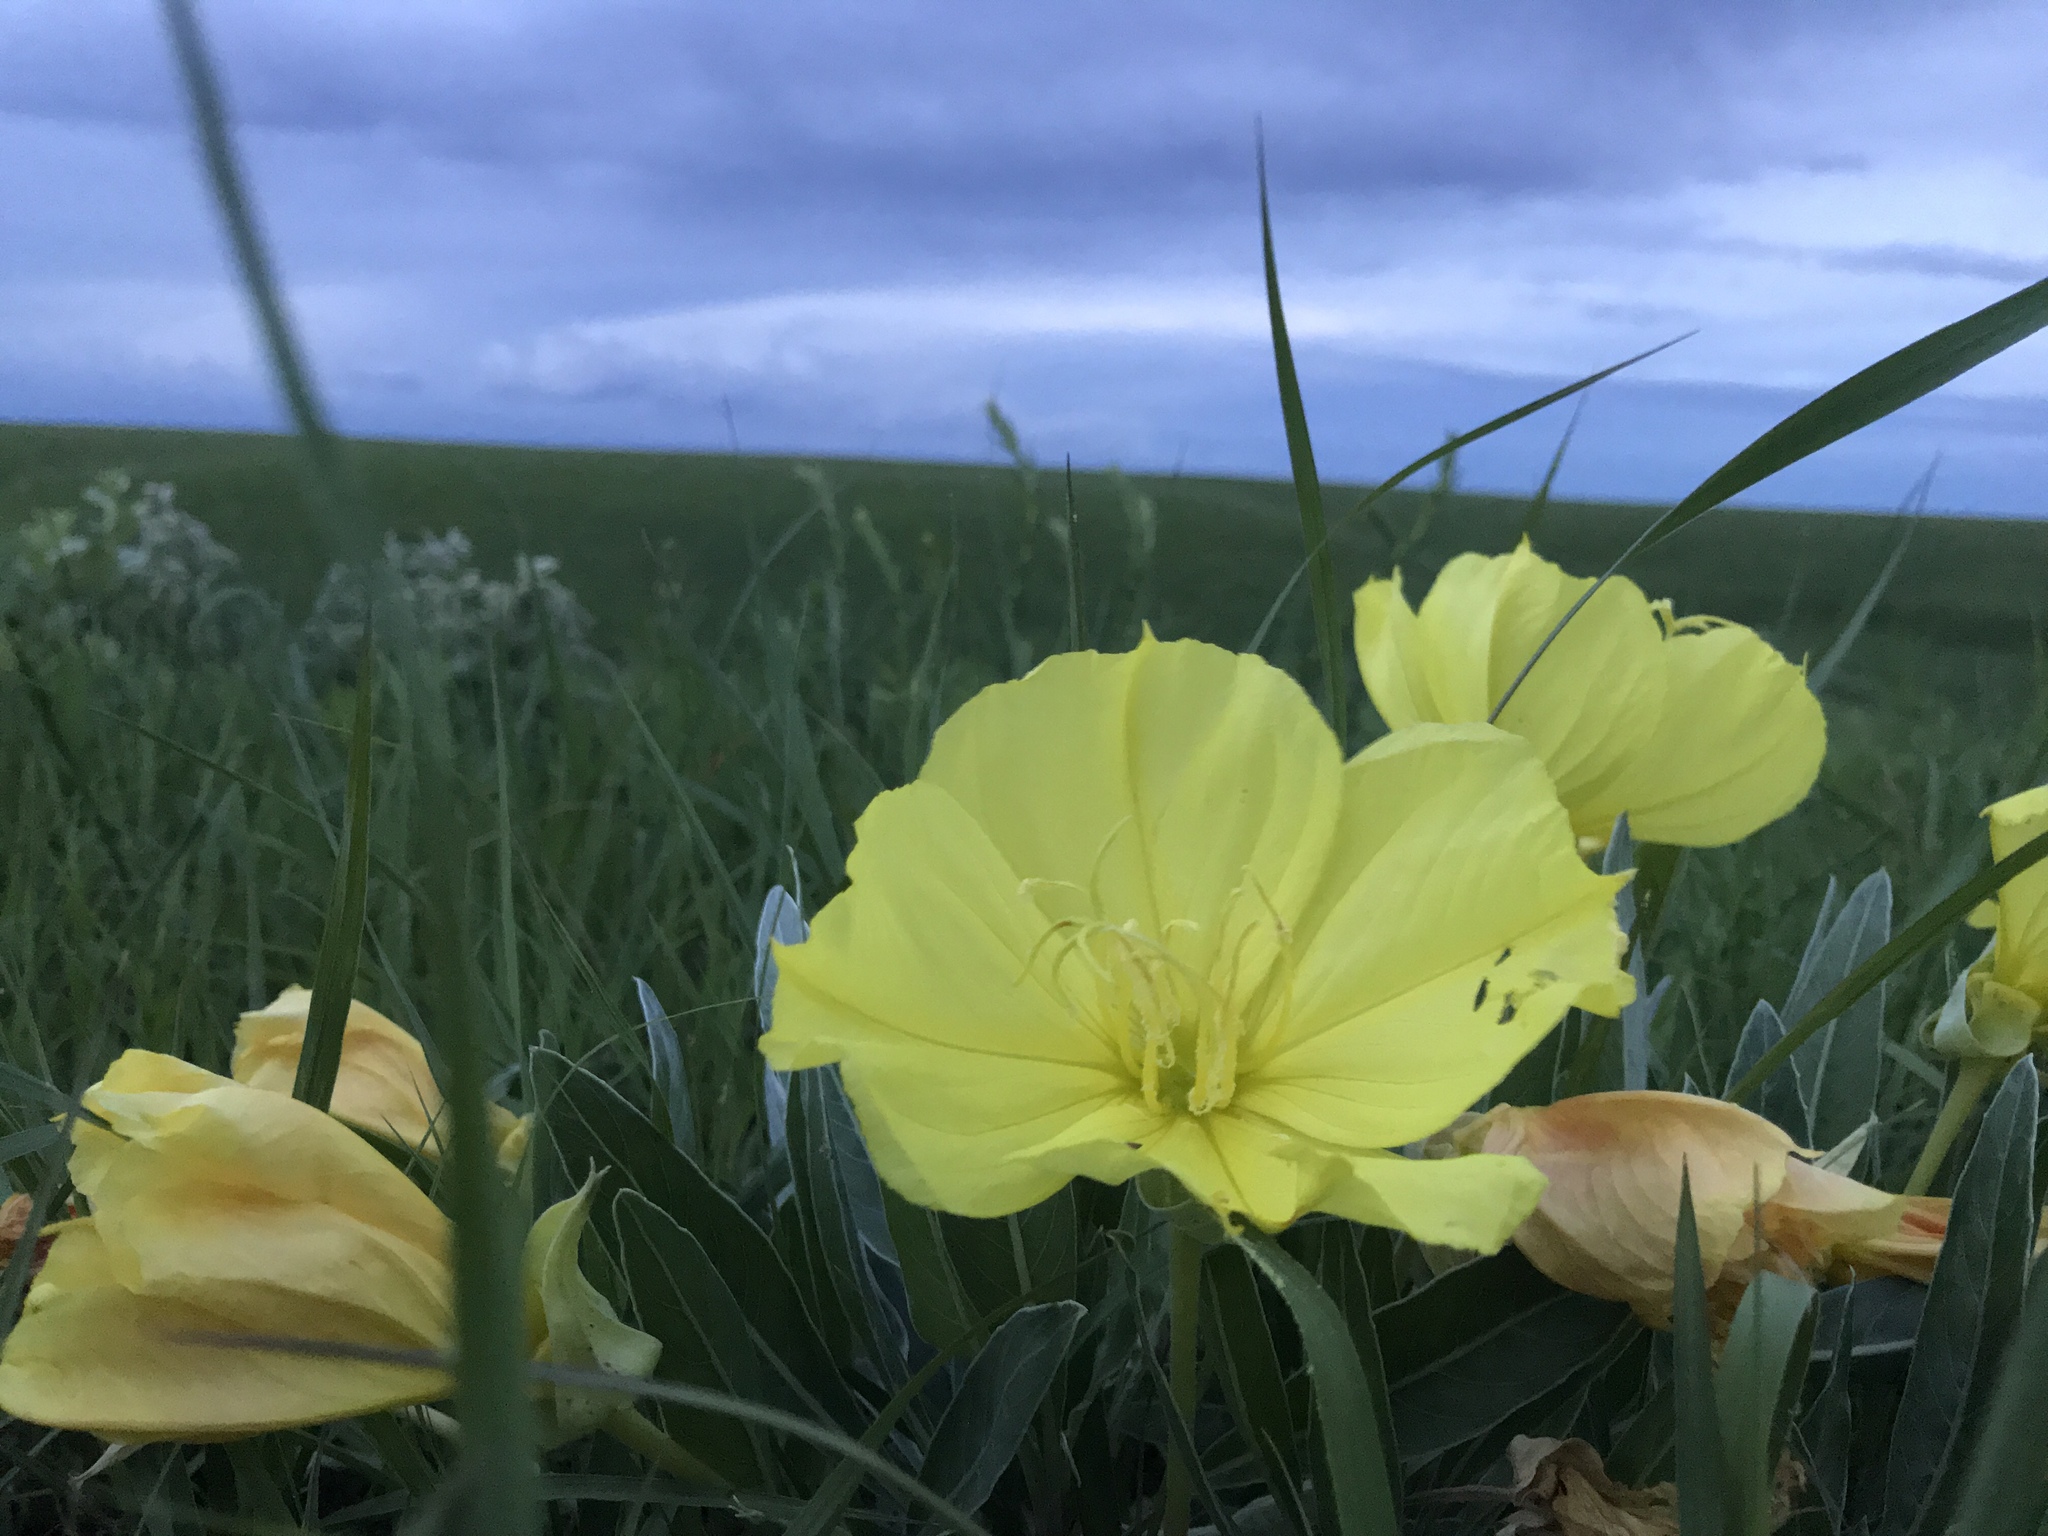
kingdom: Plantae
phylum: Tracheophyta
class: Magnoliopsida
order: Myrtales
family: Onagraceae
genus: Oenothera
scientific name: Oenothera macrocarpa
